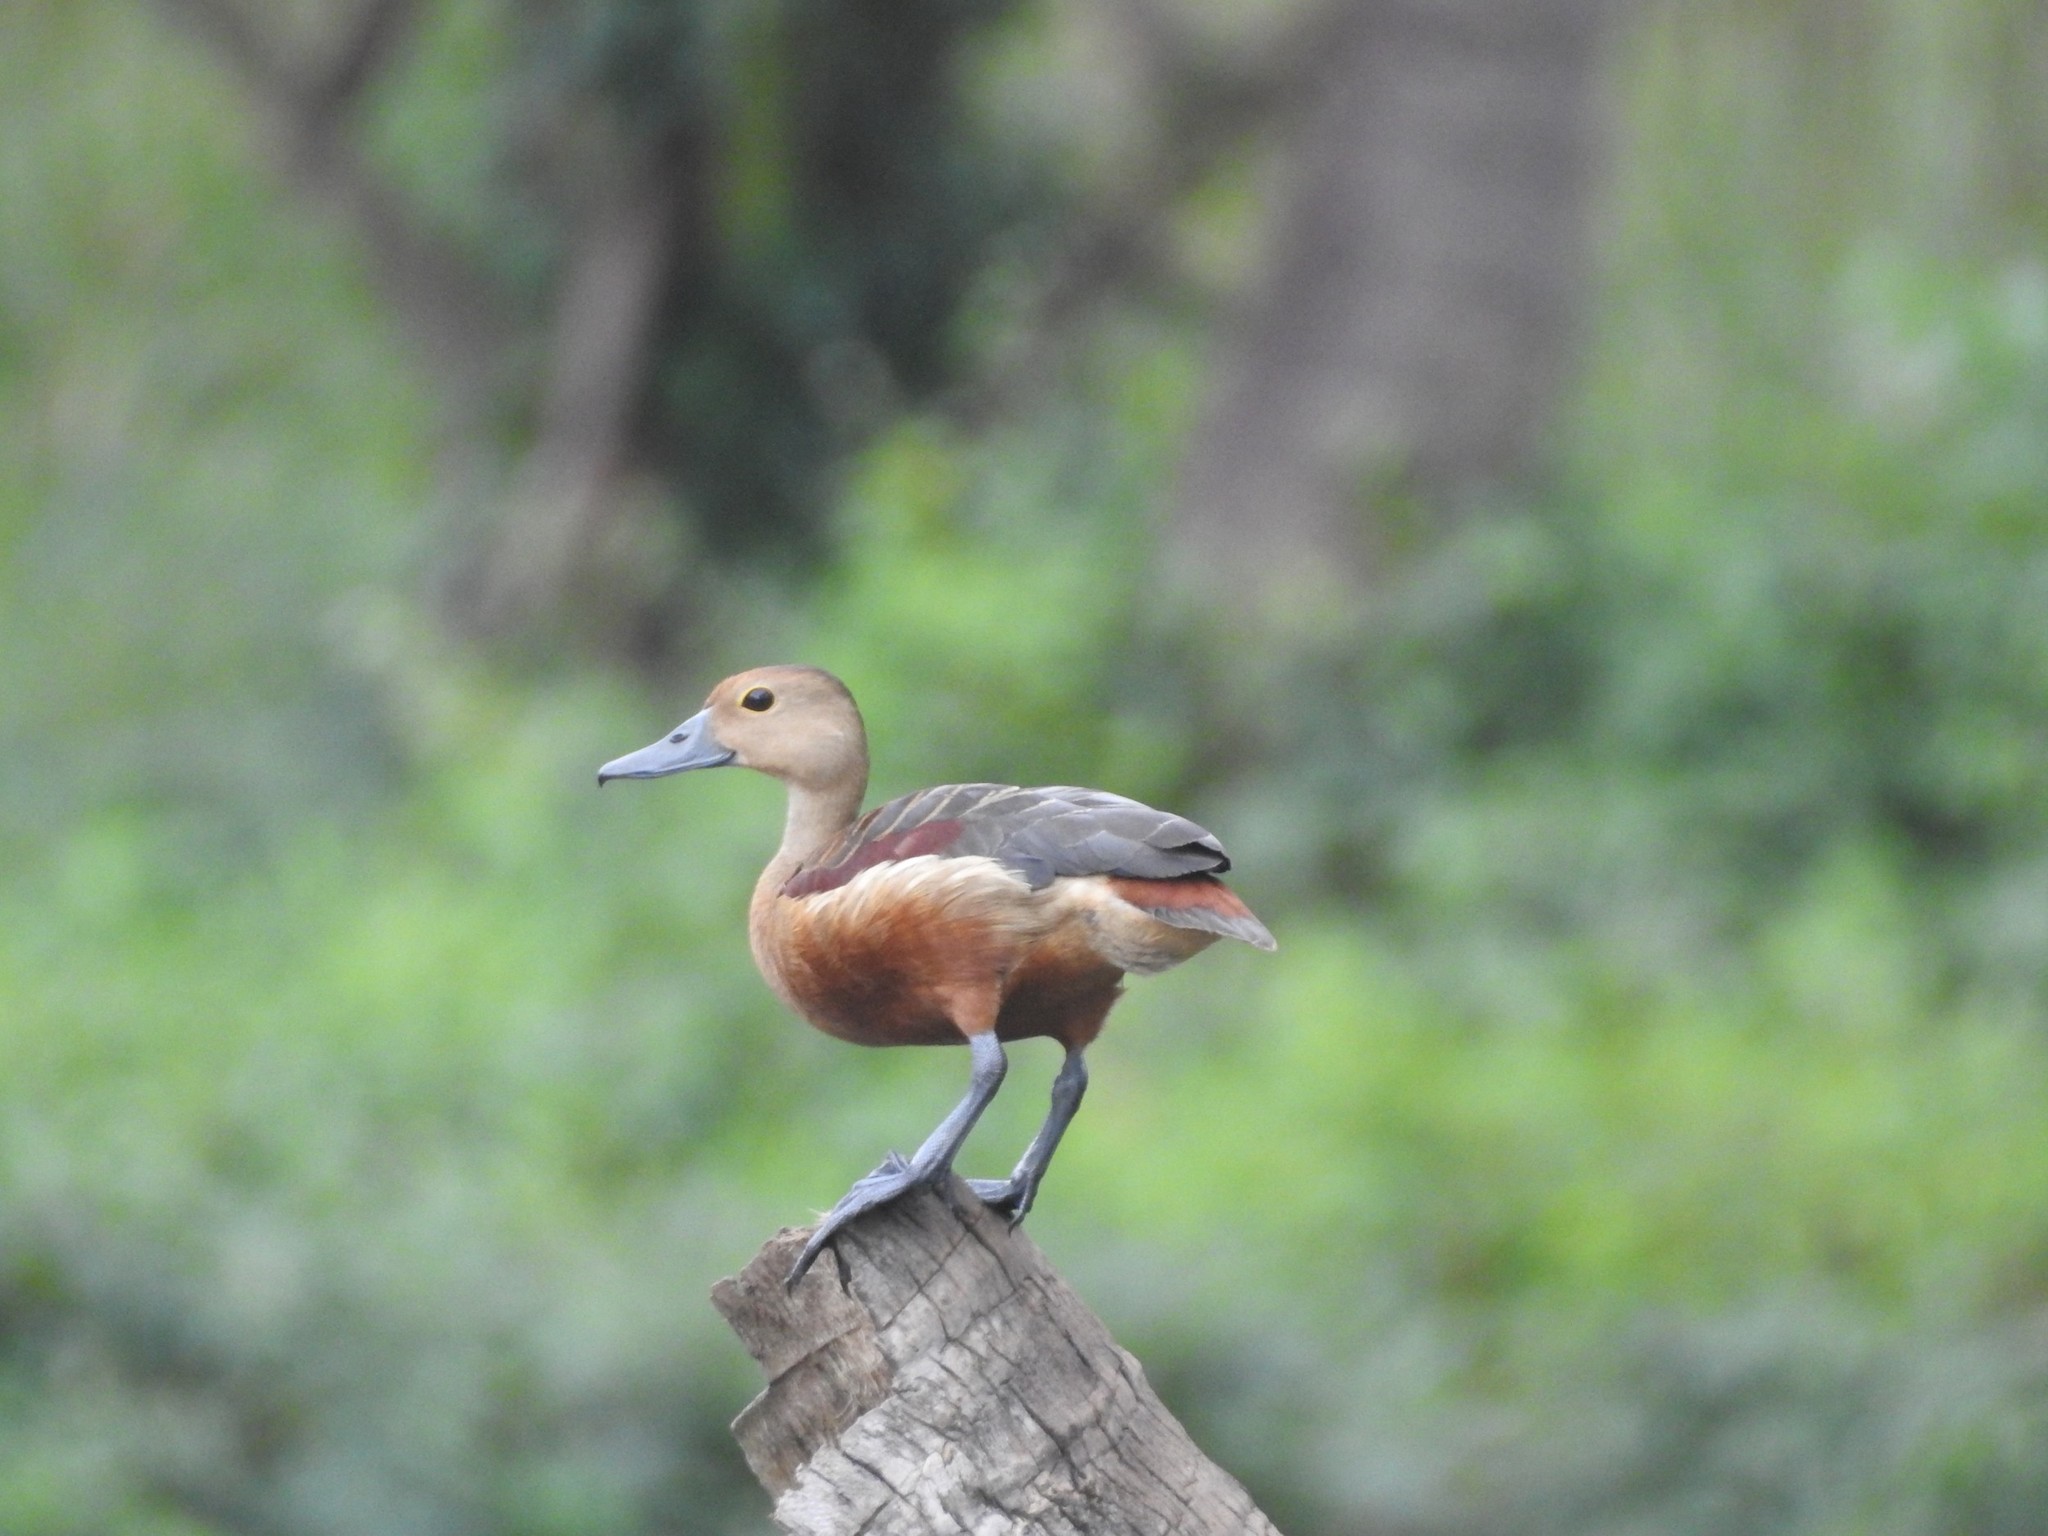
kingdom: Animalia
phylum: Chordata
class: Aves
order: Anseriformes
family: Anatidae
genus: Dendrocygna
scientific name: Dendrocygna javanica
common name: Lesser whistling-duck
